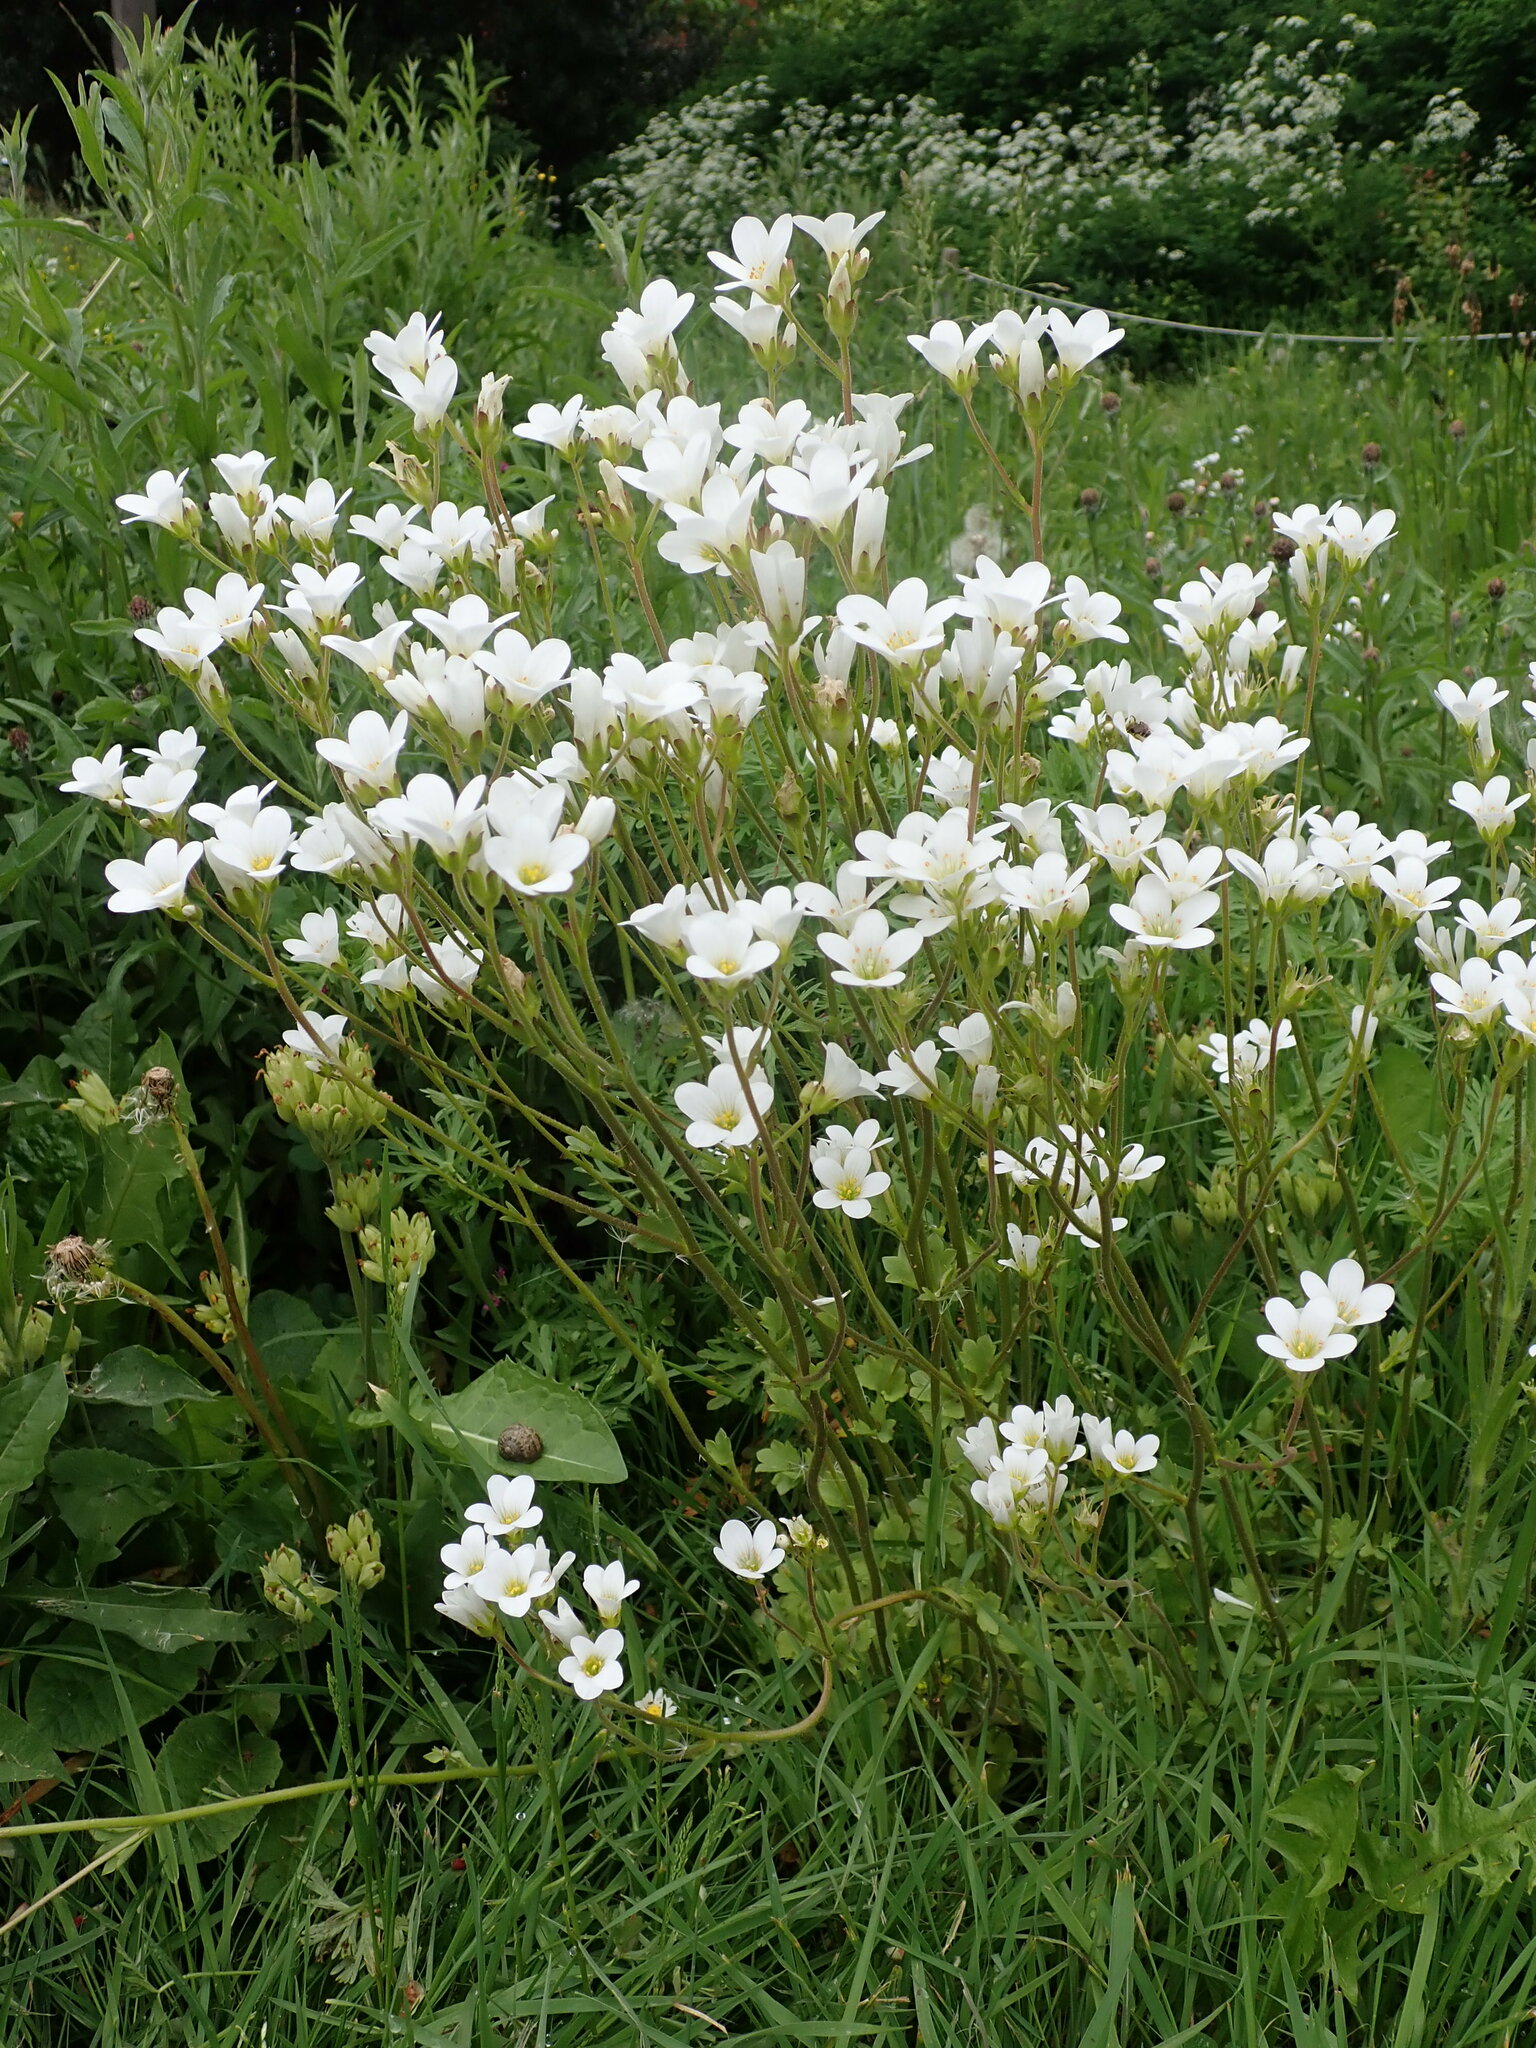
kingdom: Plantae
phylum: Tracheophyta
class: Magnoliopsida
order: Saxifragales
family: Saxifragaceae
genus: Saxifraga
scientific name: Saxifraga granulata
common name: Meadow saxifrage
